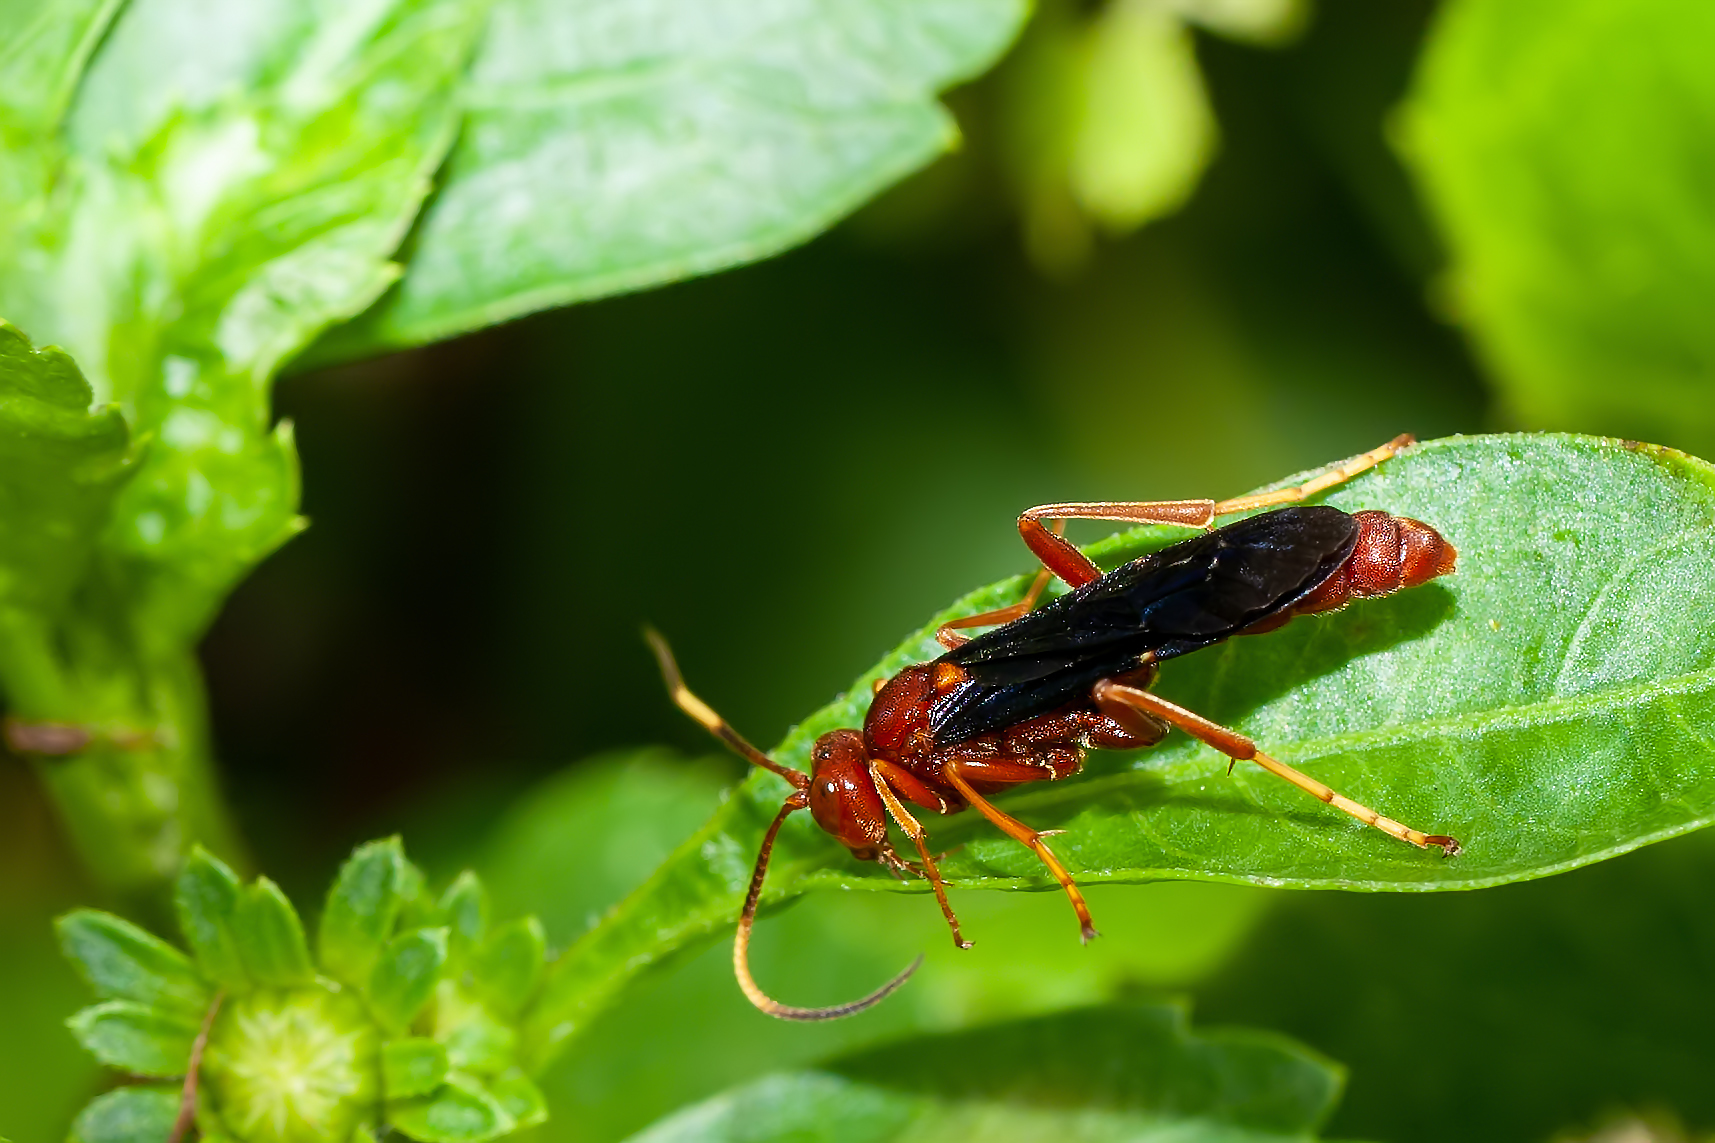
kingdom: Animalia
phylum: Arthropoda
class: Insecta
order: Hymenoptera
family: Ichneumonidae
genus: Trogomorpha
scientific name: Trogomorpha trogiformis
